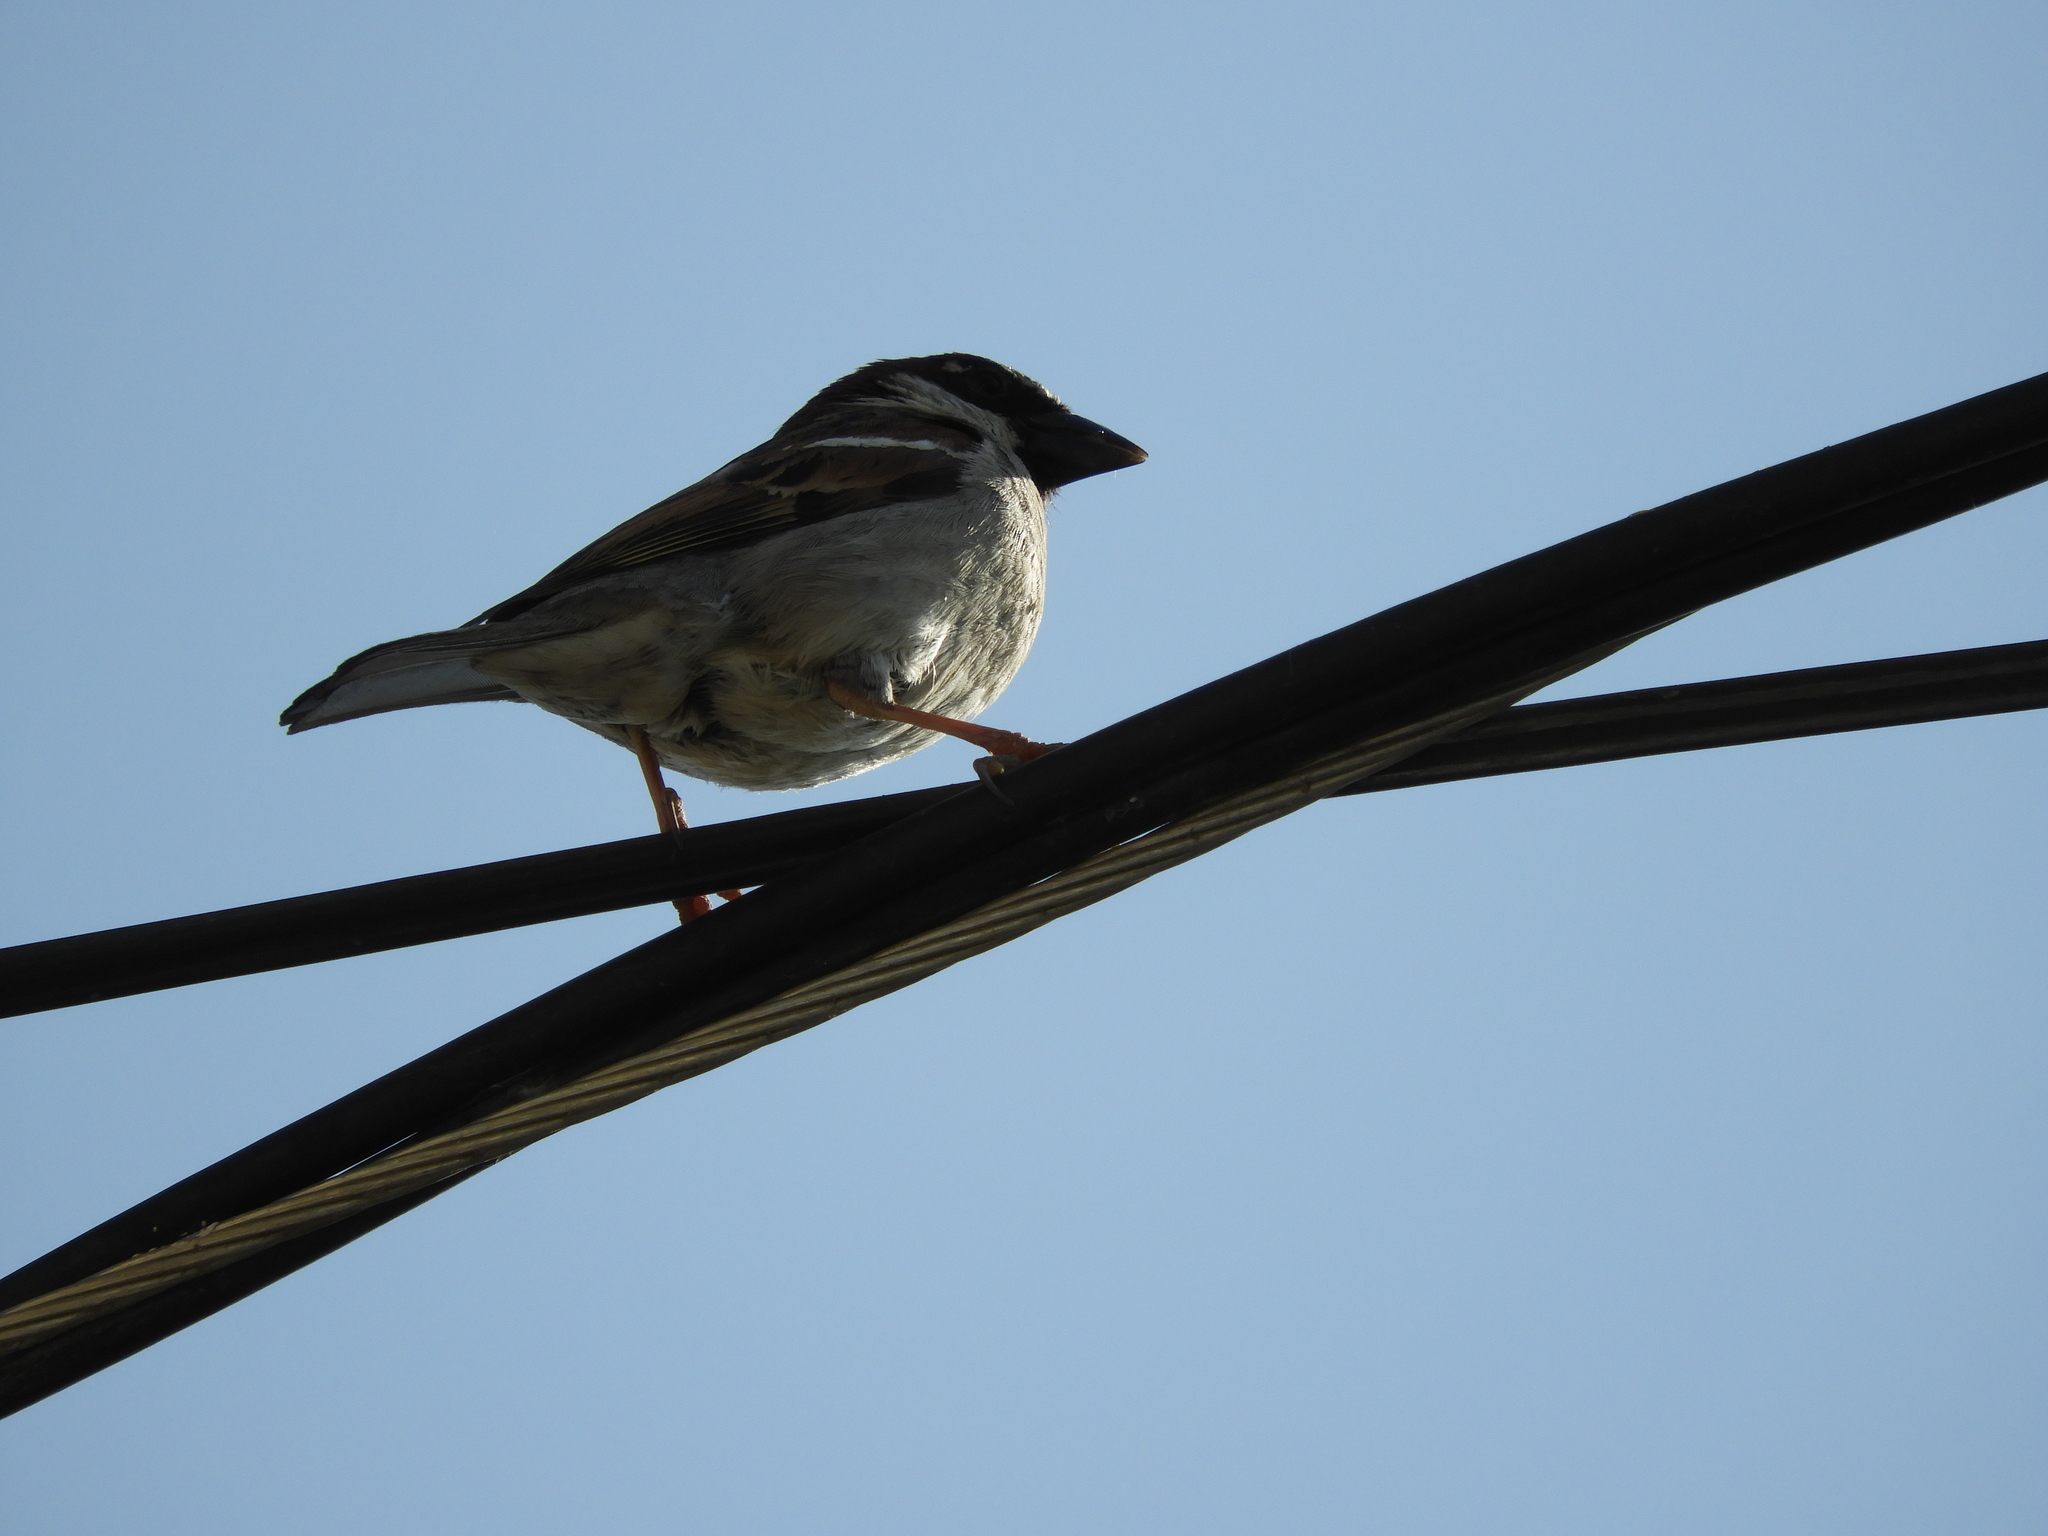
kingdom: Animalia
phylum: Chordata
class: Aves
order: Passeriformes
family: Passeridae
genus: Passer
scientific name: Passer domesticus
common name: House sparrow
